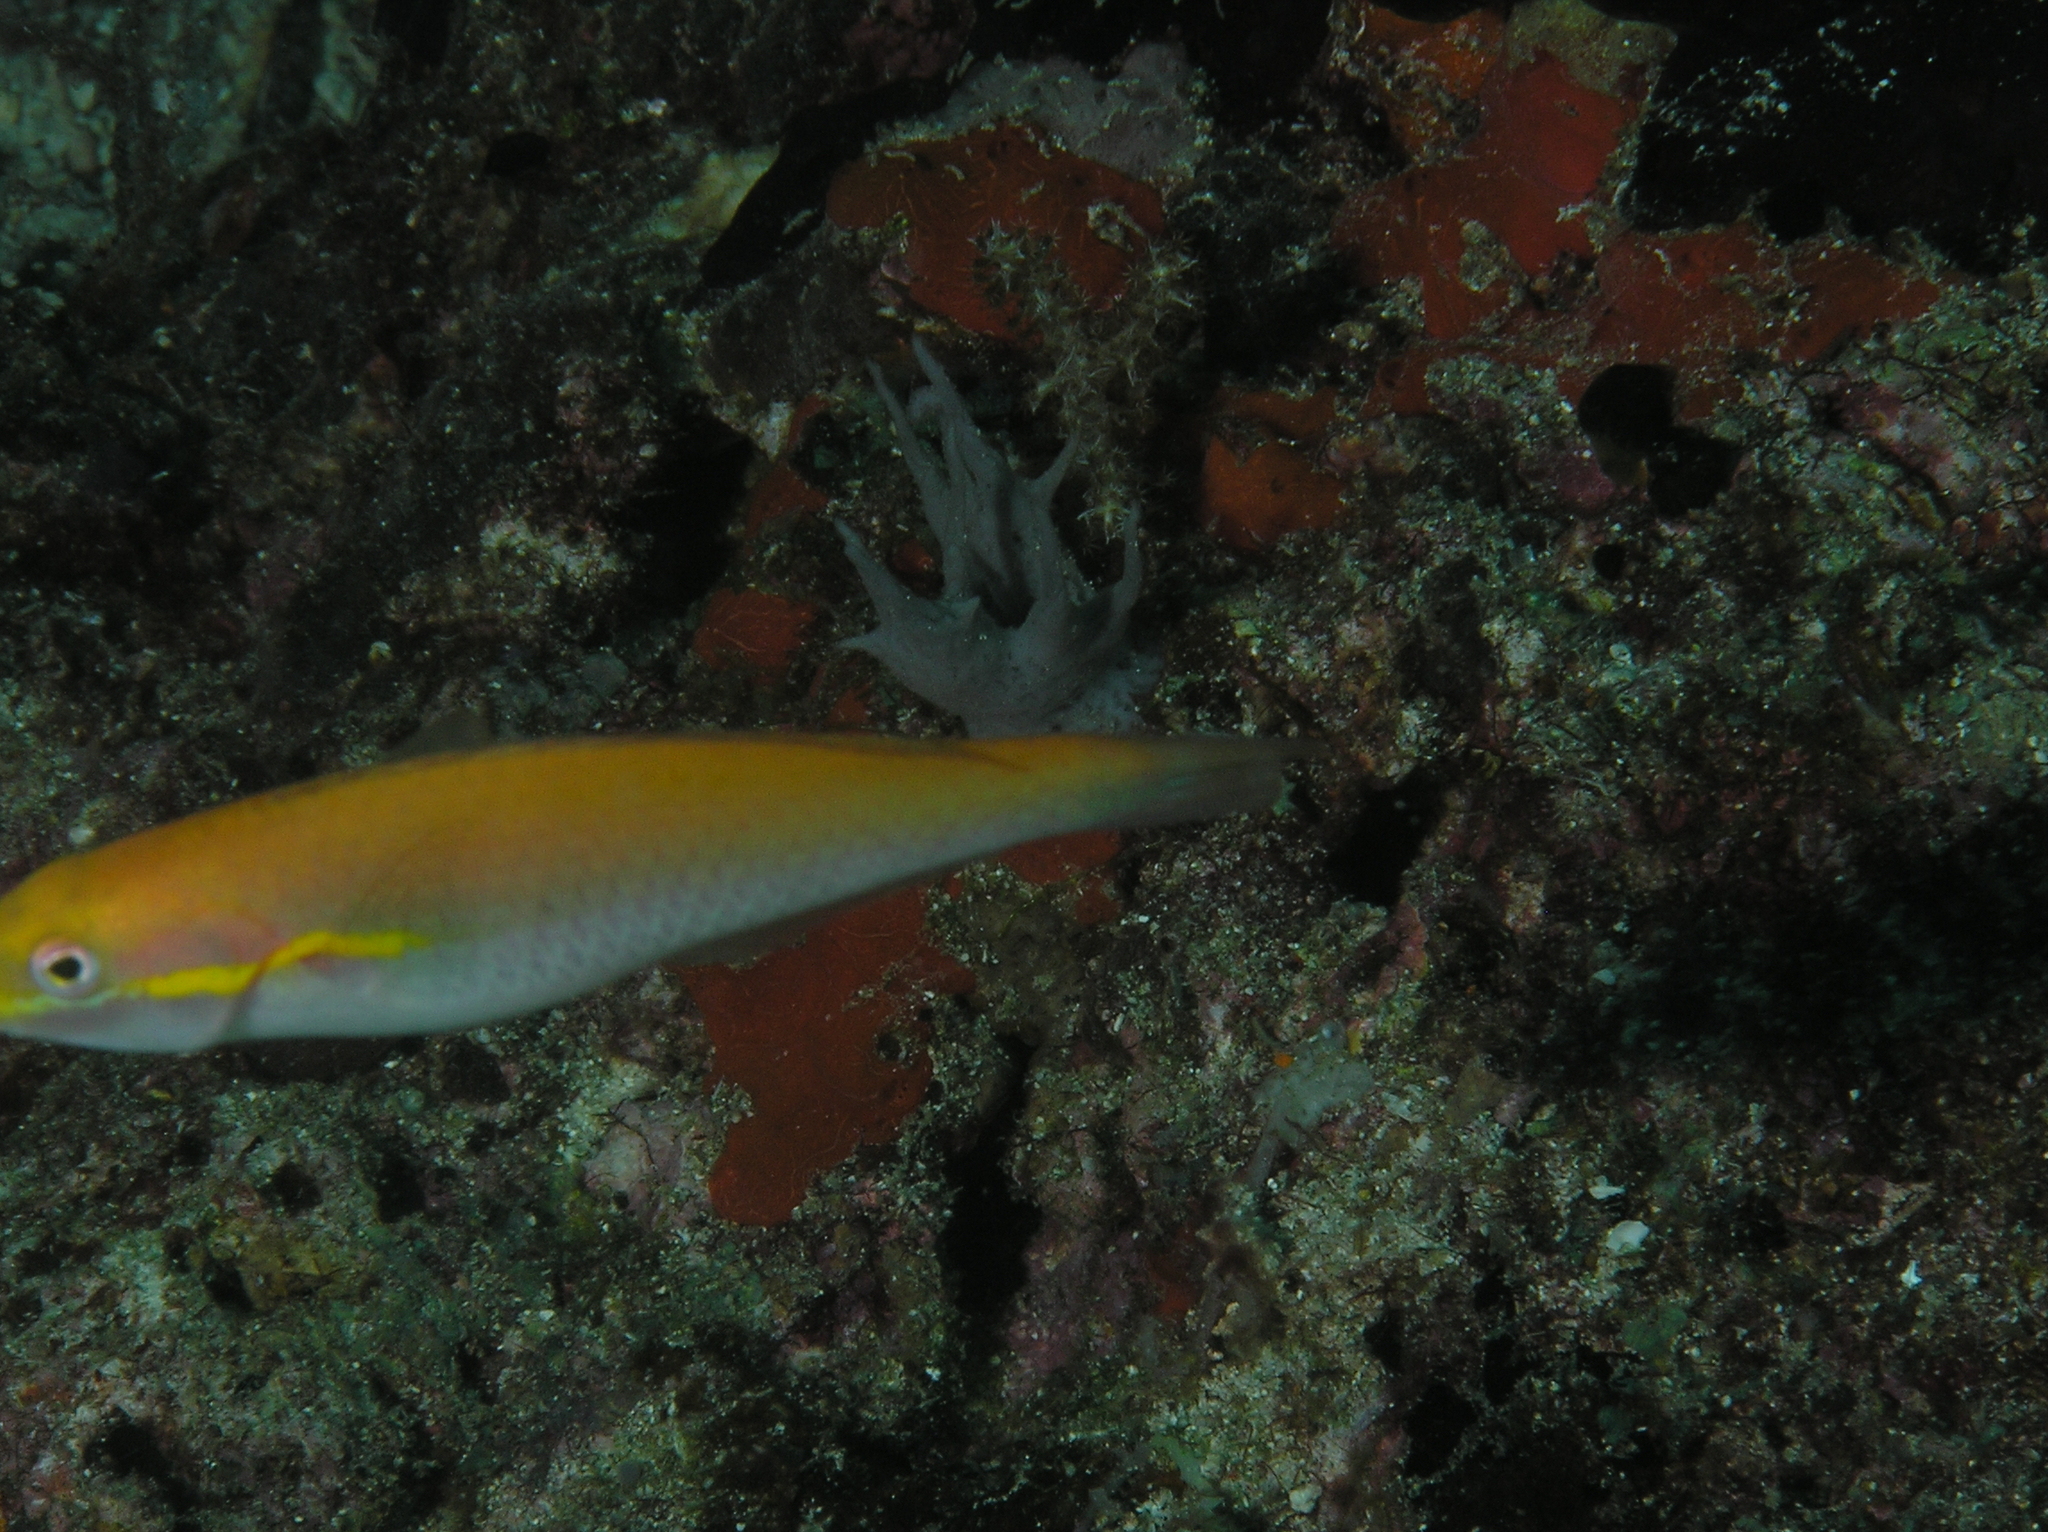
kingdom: Animalia
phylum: Chordata
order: Perciformes
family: Labridae
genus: Stethojulis
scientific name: Stethojulis interrupta
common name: Cutribbon wrasse
